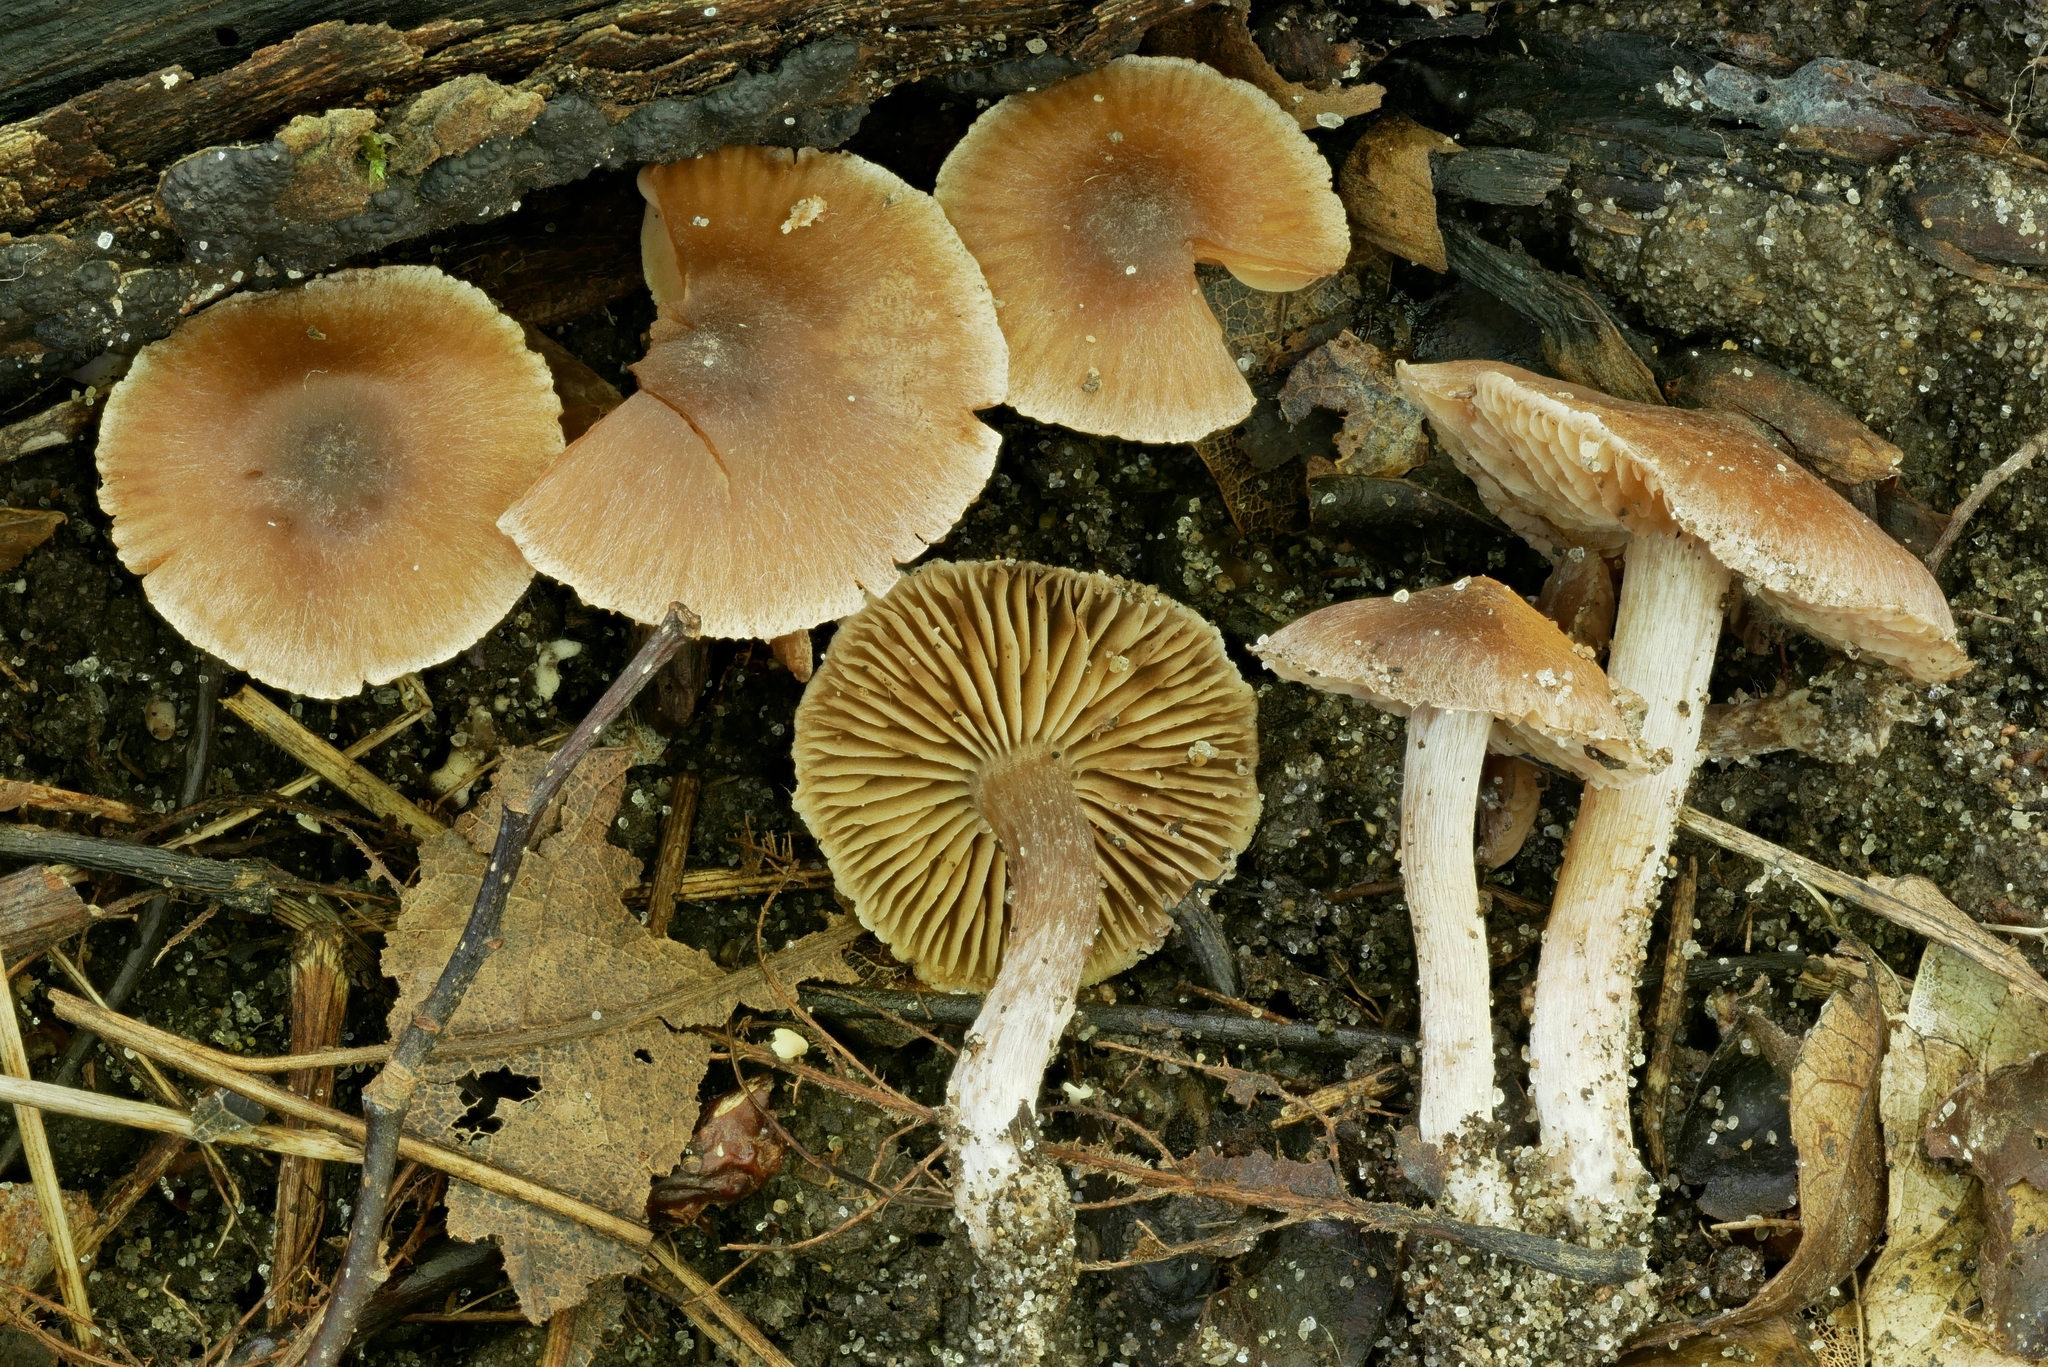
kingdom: Fungi
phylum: Basidiomycota
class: Agaricomycetes
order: Agaricales
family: Cortinariaceae
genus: Cortinarius
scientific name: Cortinarius biriensis
